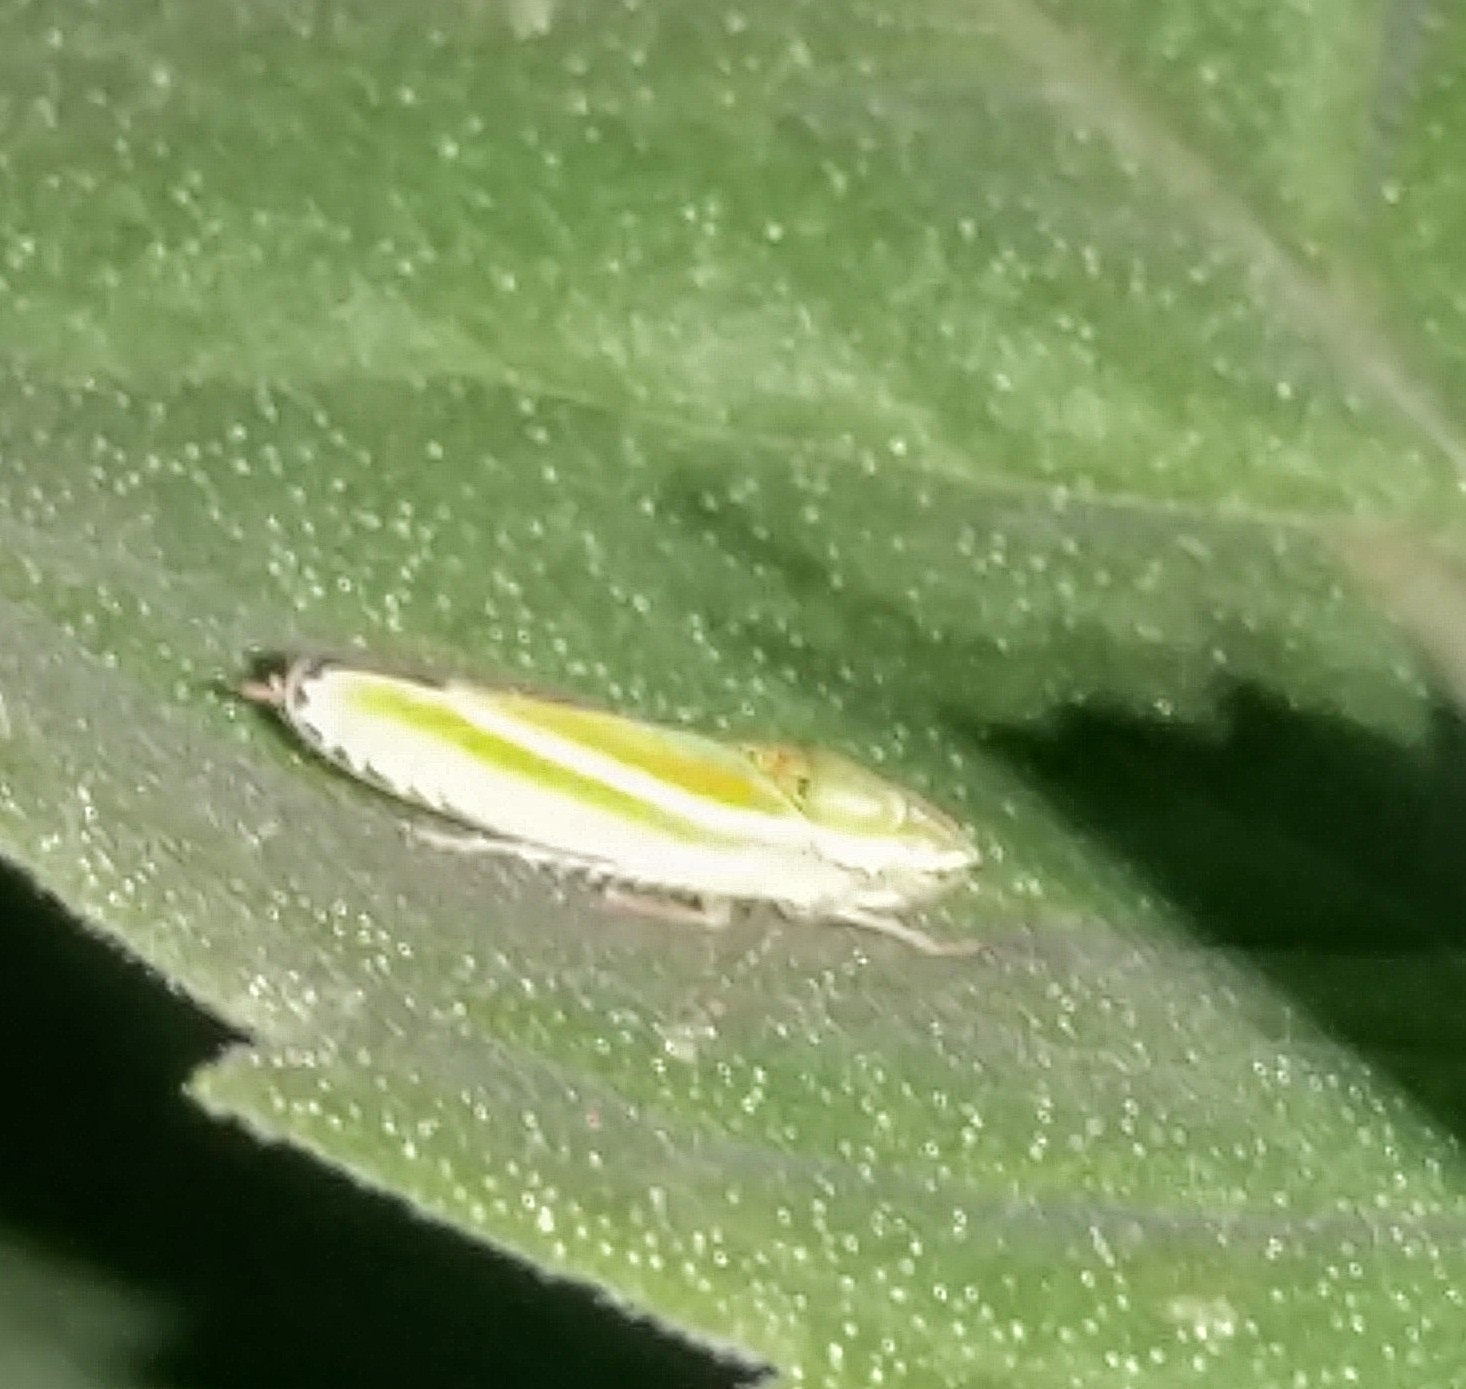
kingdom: Animalia
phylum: Arthropoda
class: Insecta
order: Hemiptera
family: Cicadellidae
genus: Graphocephala
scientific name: Graphocephala versuta
